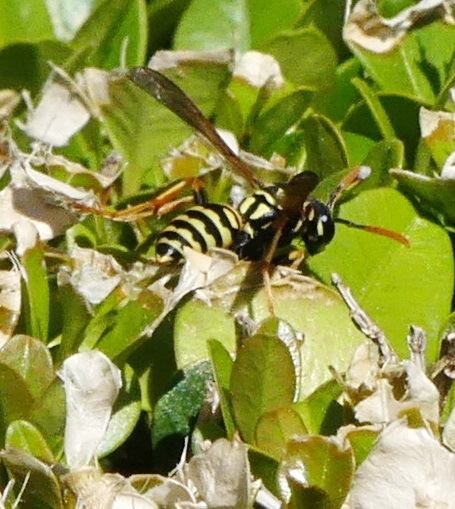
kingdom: Animalia
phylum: Arthropoda
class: Insecta
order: Hymenoptera
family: Eumenidae
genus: Polistes
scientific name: Polistes dominula
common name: Paper wasp
